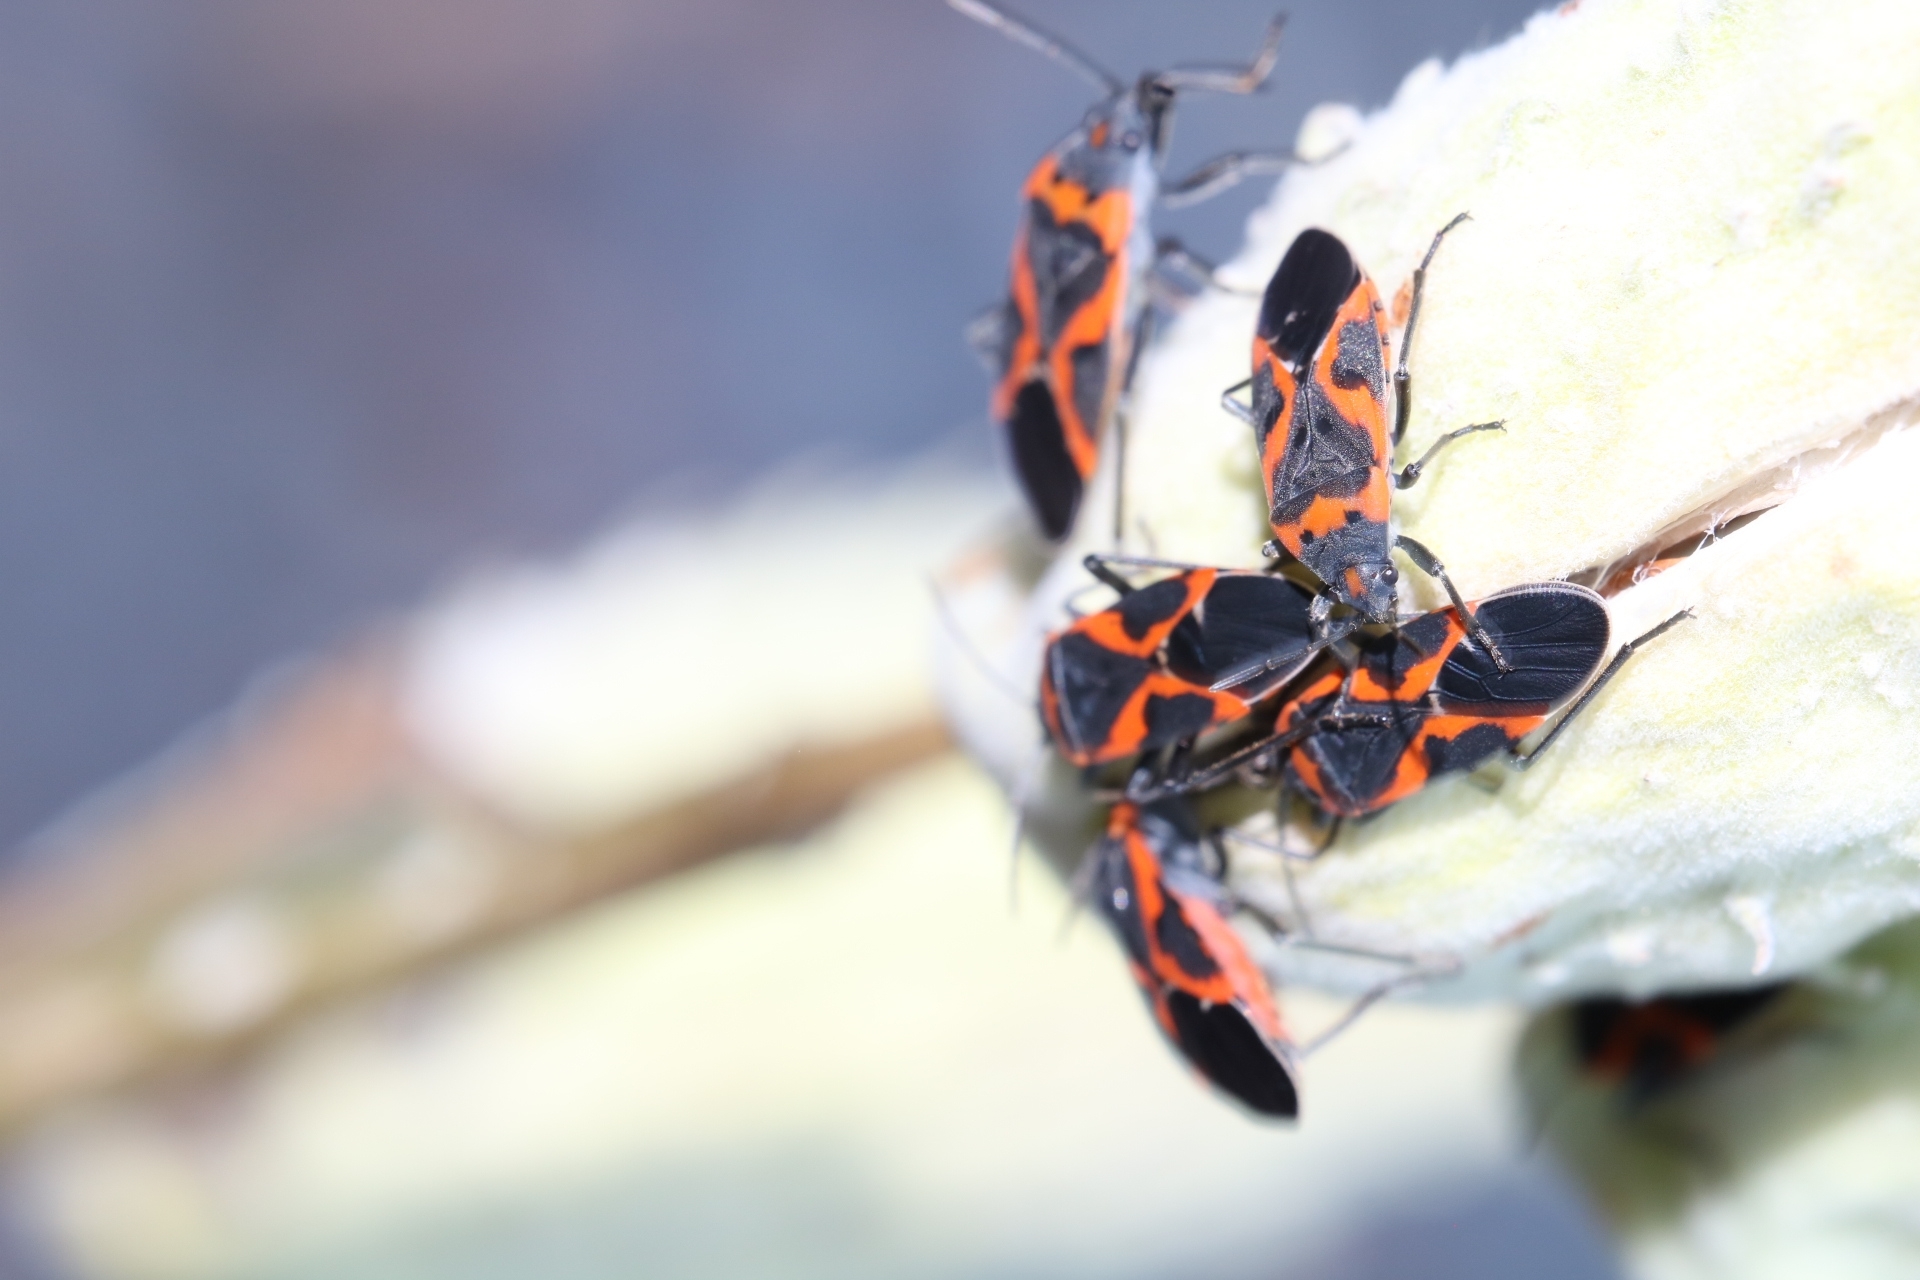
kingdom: Animalia
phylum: Arthropoda
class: Insecta
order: Hemiptera
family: Lygaeidae
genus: Lygaeus
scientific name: Lygaeus kalmii
